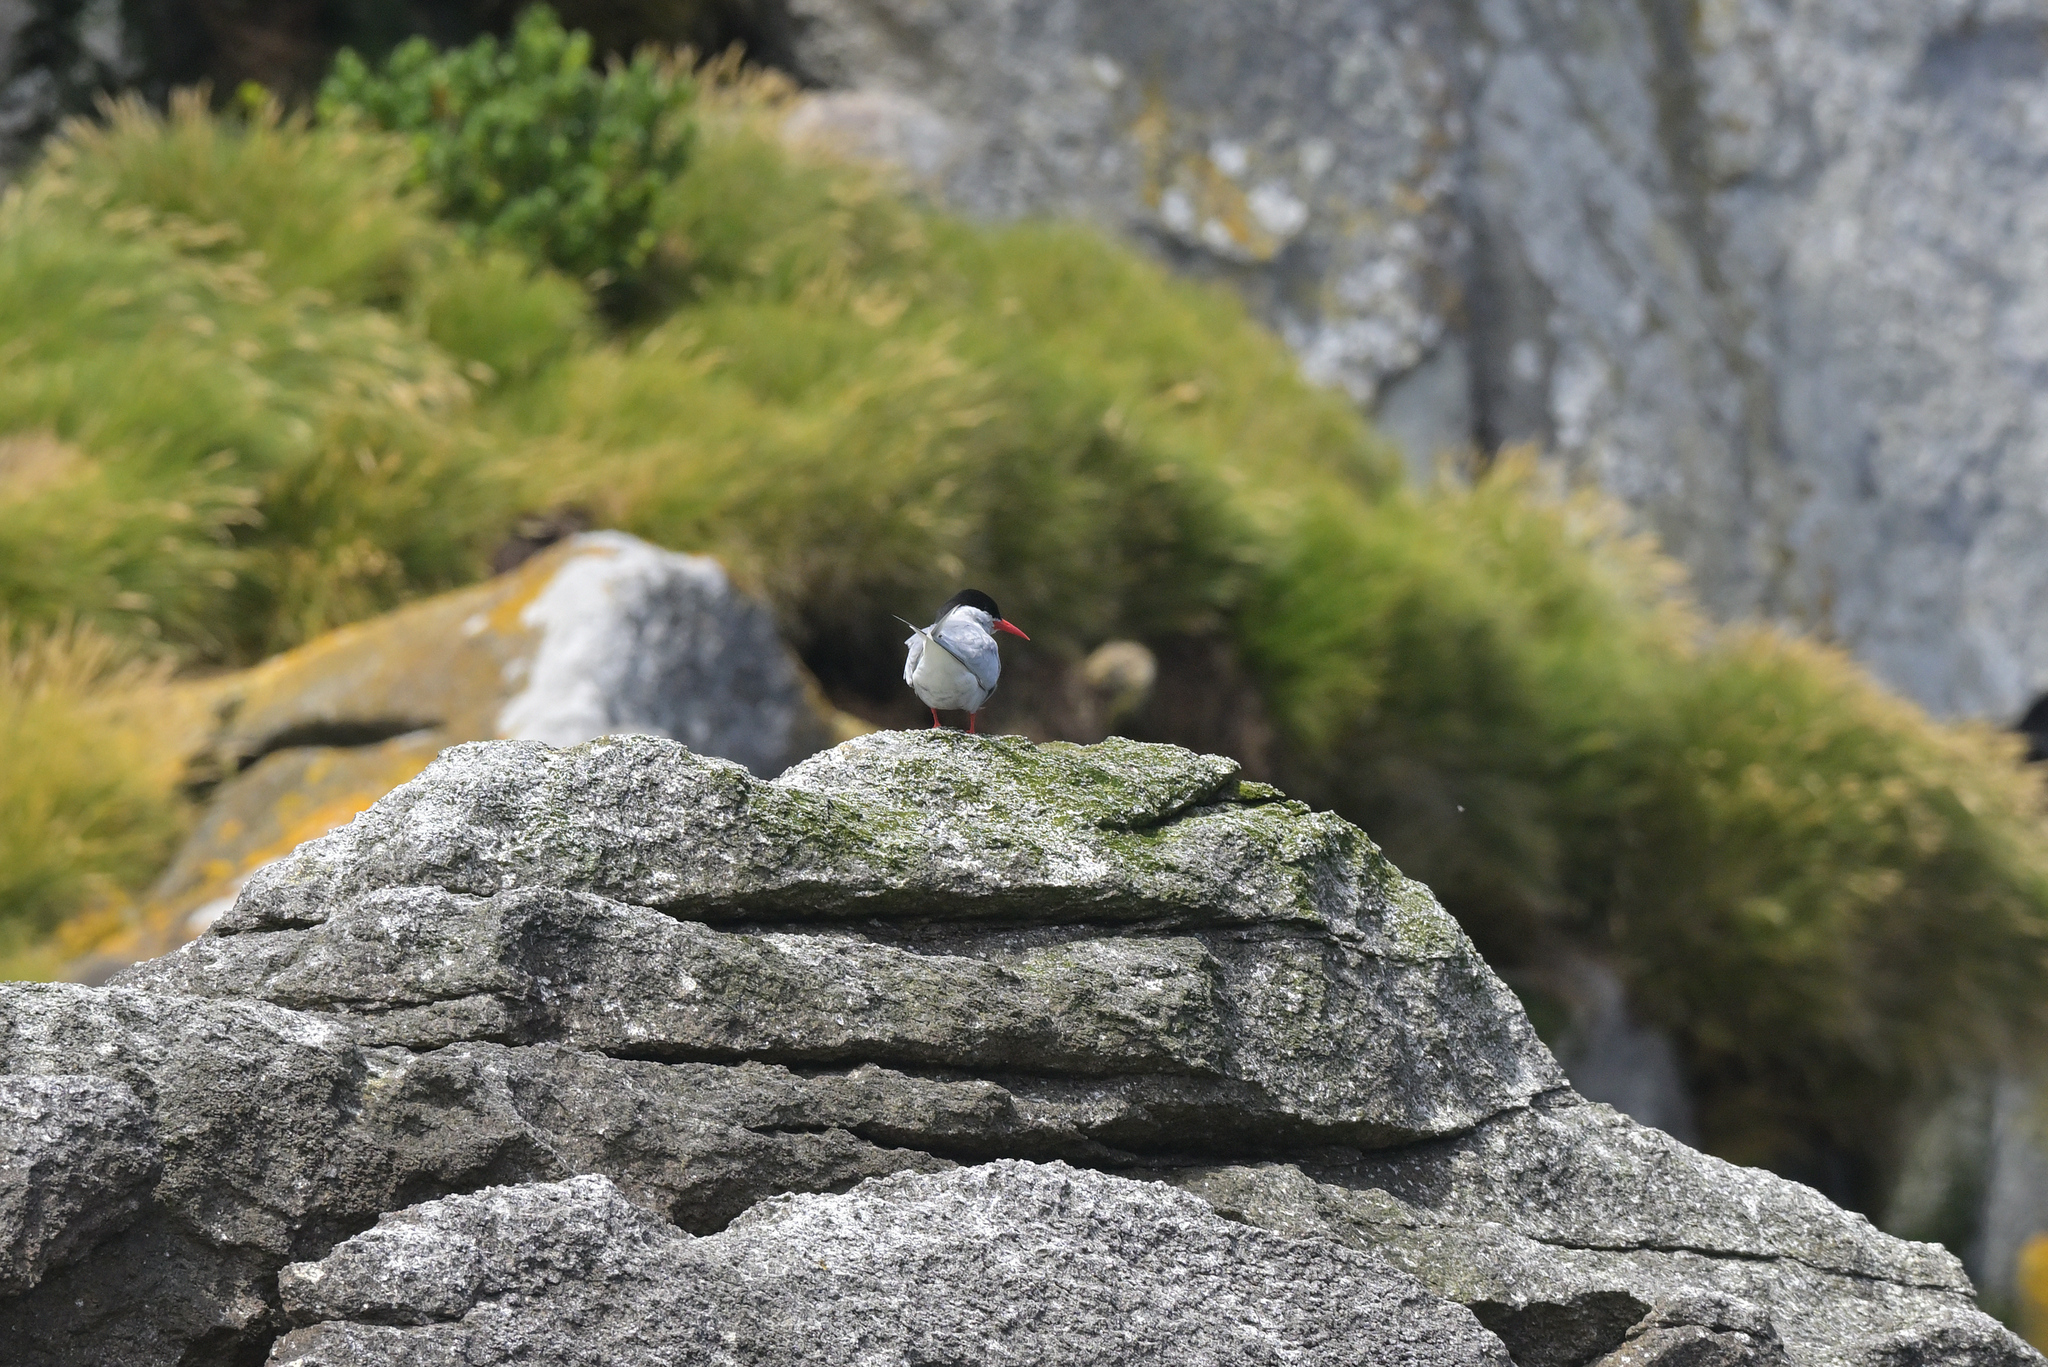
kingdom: Animalia
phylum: Chordata
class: Aves
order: Charadriiformes
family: Laridae
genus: Sterna
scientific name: Sterna vittata
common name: Antarctic tern
